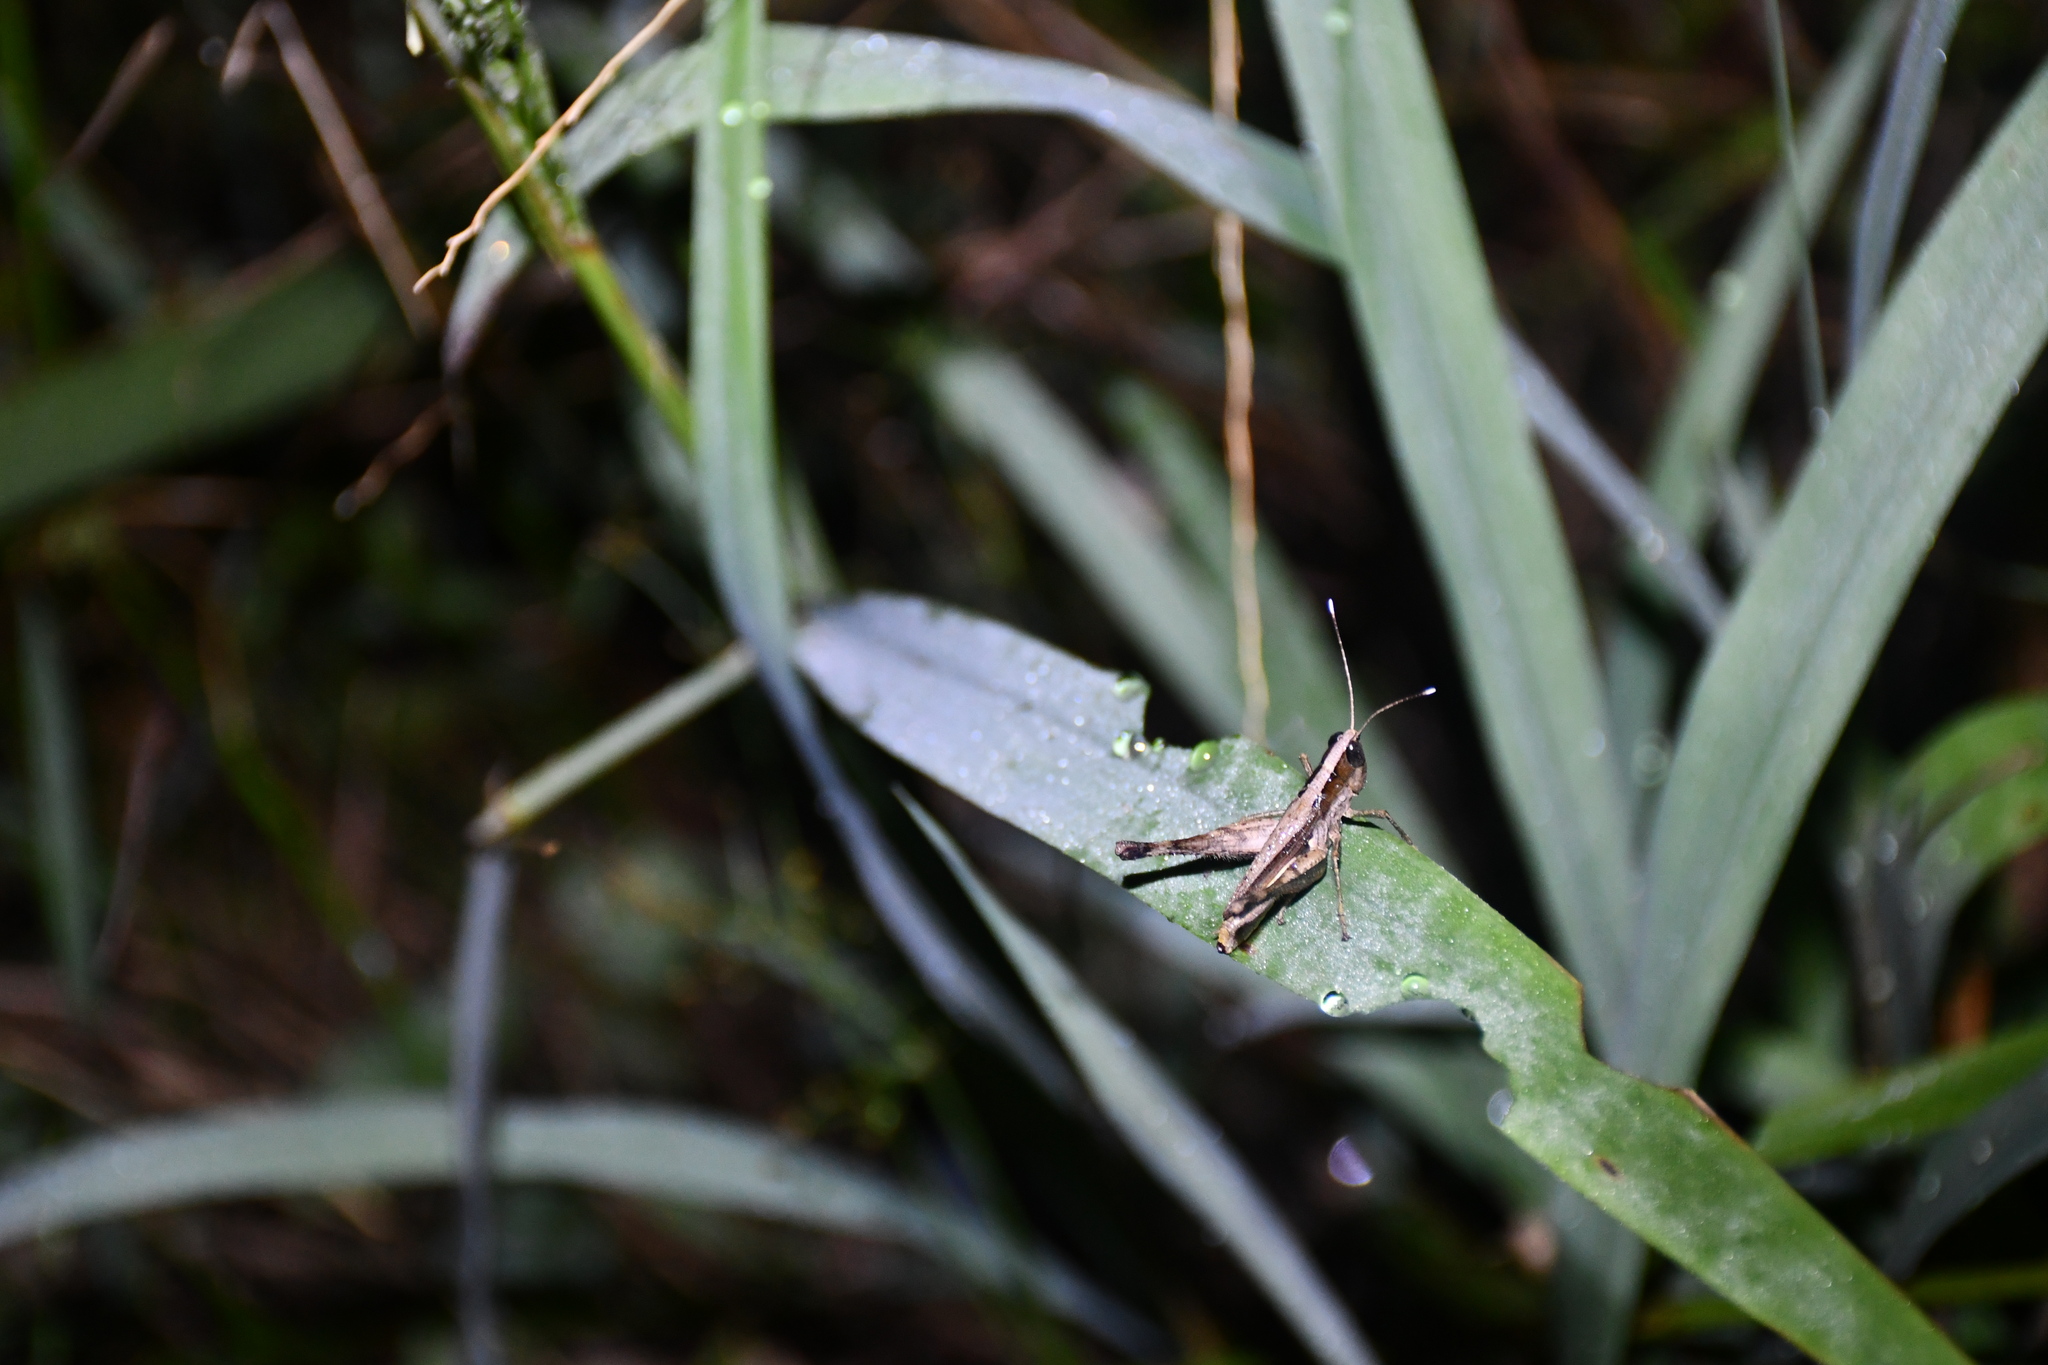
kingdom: Animalia
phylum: Arthropoda
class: Insecta
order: Orthoptera
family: Acrididae
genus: Compsacris
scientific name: Compsacris pulcher
